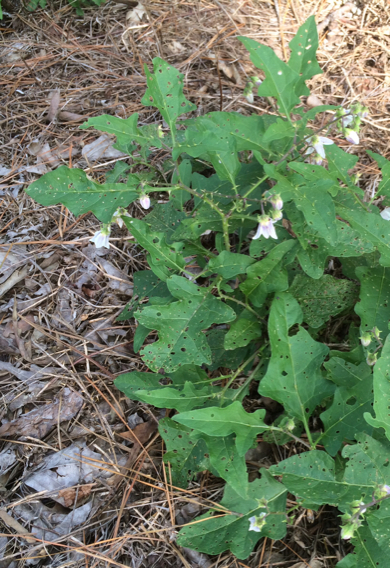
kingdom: Plantae
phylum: Tracheophyta
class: Magnoliopsida
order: Solanales
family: Solanaceae
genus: Solanum
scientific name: Solanum carolinense
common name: Horse-nettle
